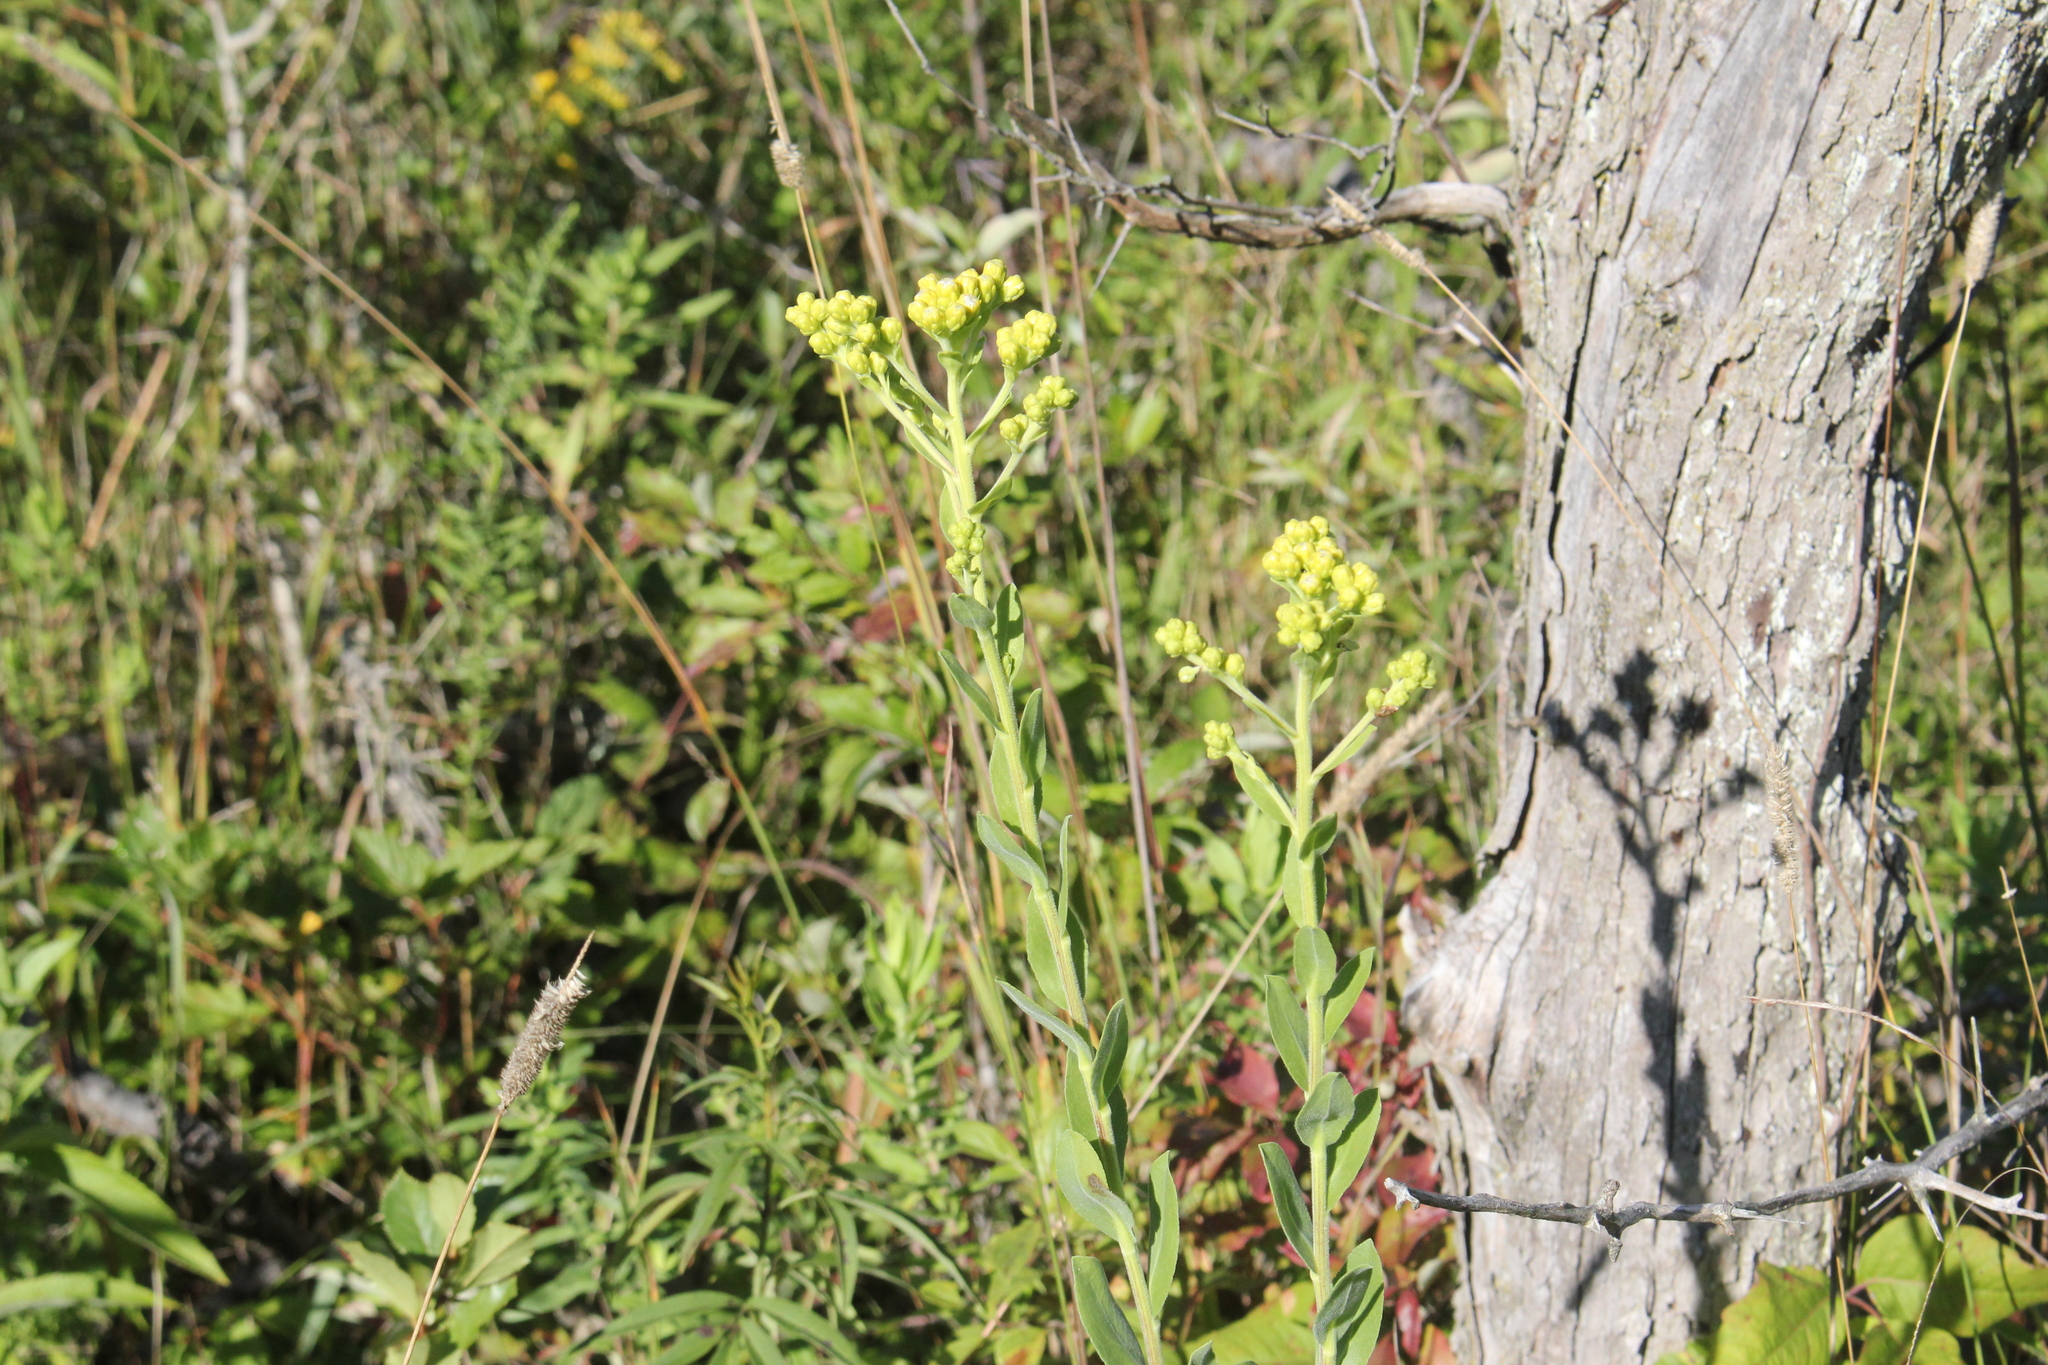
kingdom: Plantae
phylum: Tracheophyta
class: Magnoliopsida
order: Asterales
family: Asteraceae
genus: Solidago
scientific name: Solidago rigida
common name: Rigid goldenrod
